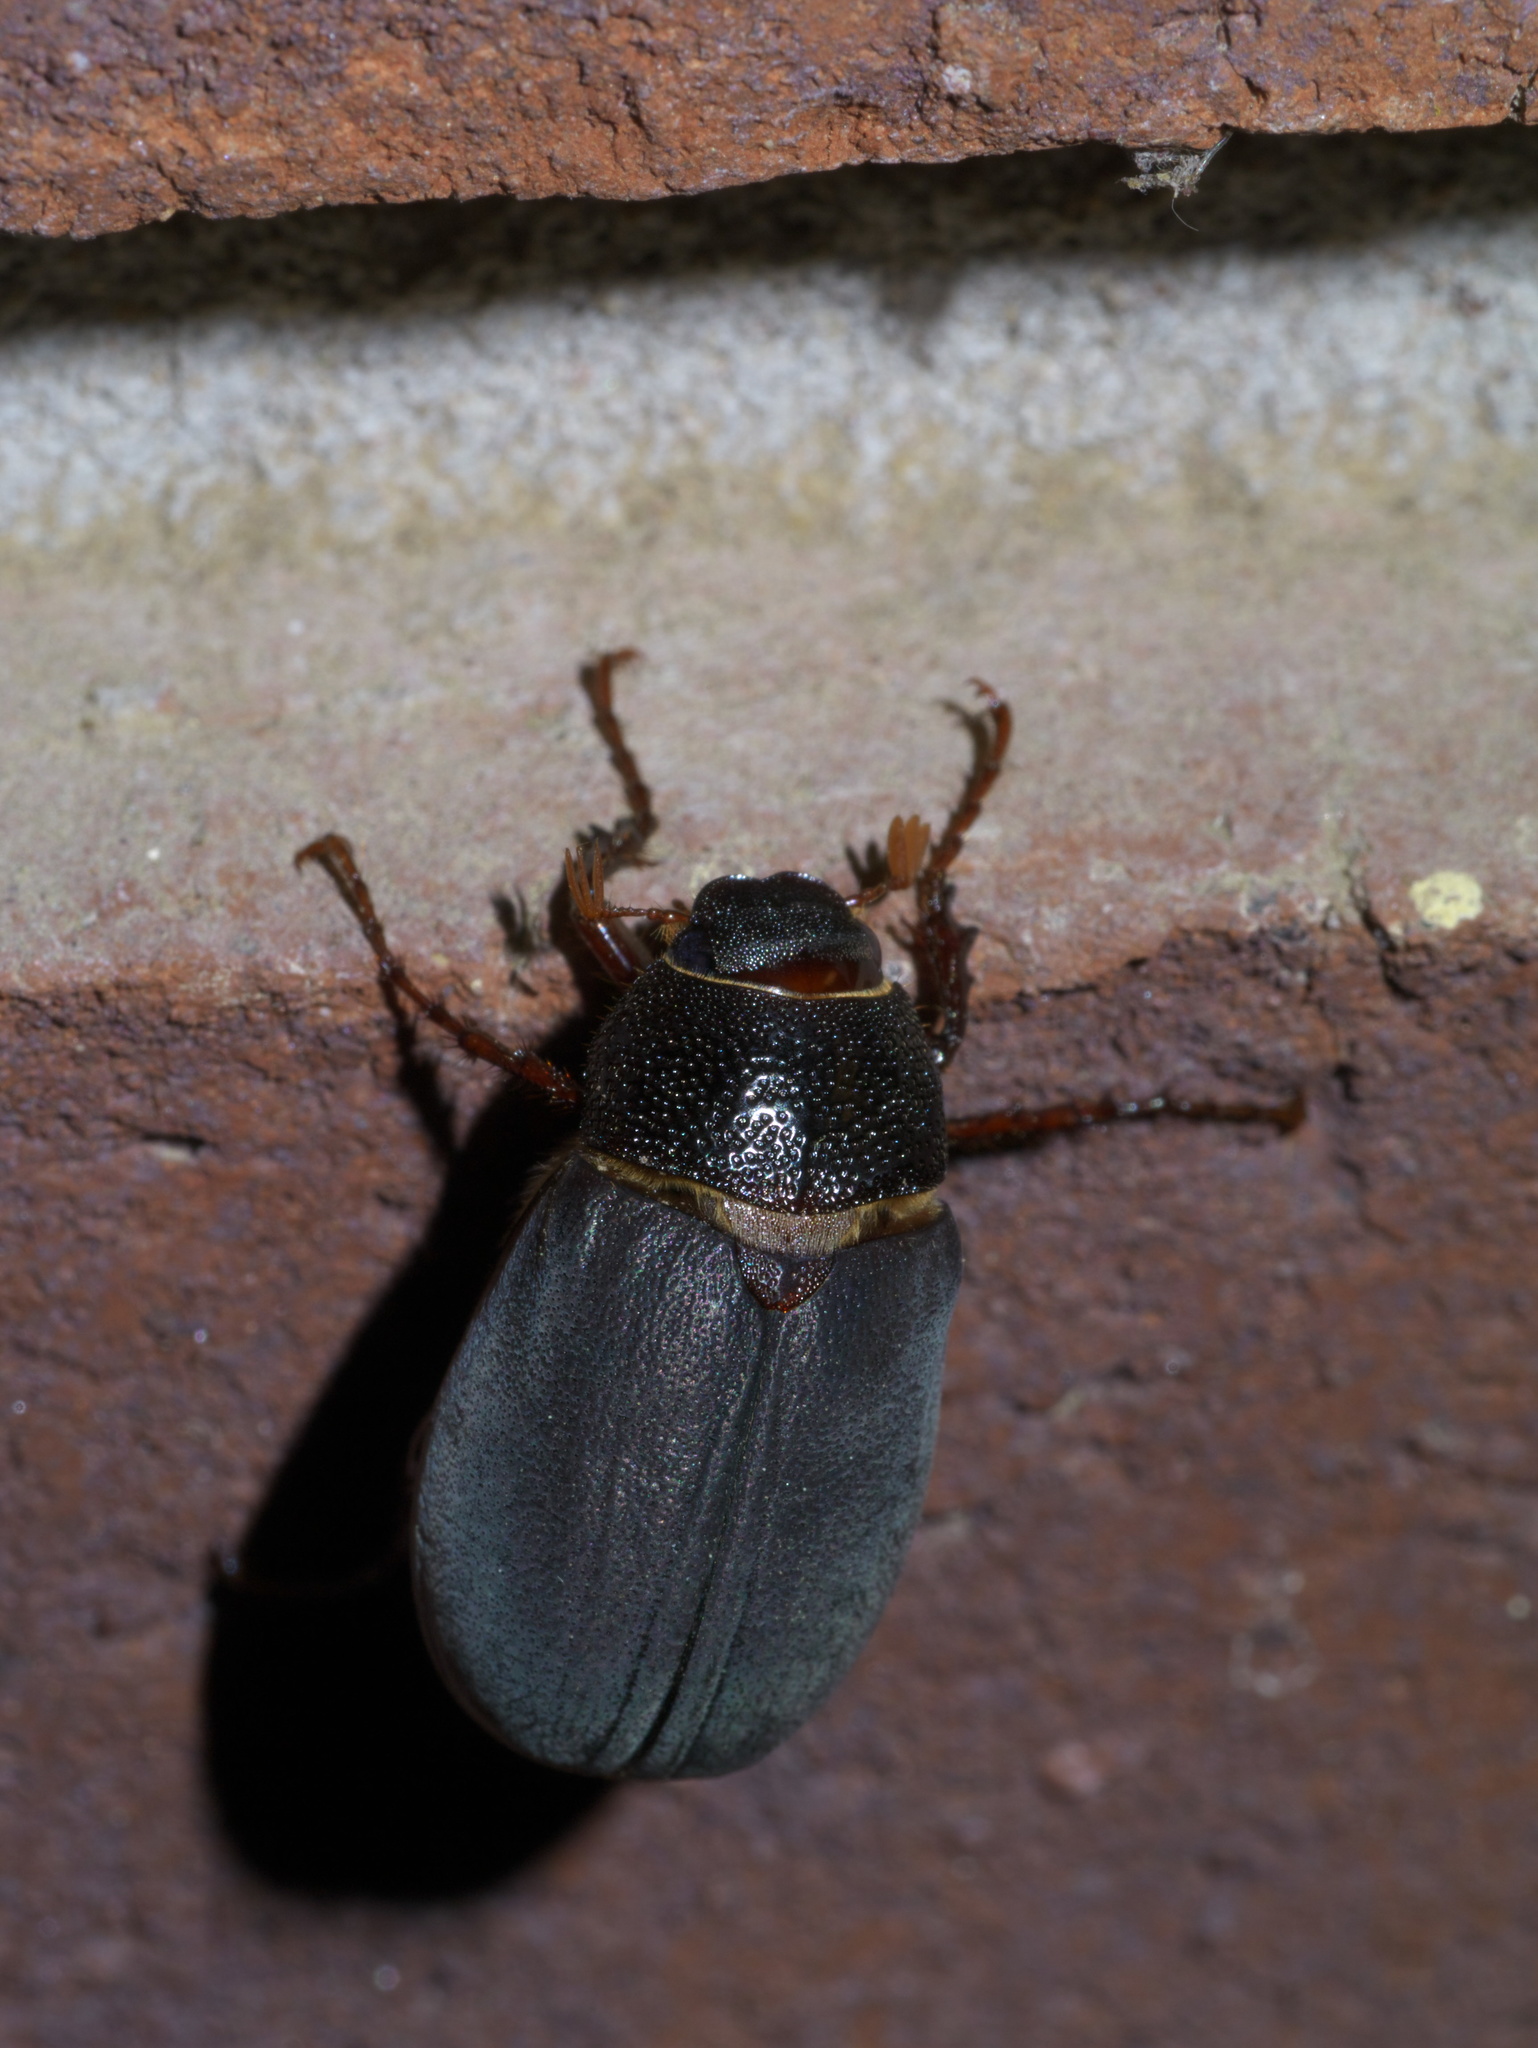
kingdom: Animalia
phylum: Arthropoda
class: Insecta
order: Coleoptera
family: Scarabaeidae
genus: Phyllophaga
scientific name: Phyllophaga prunina
